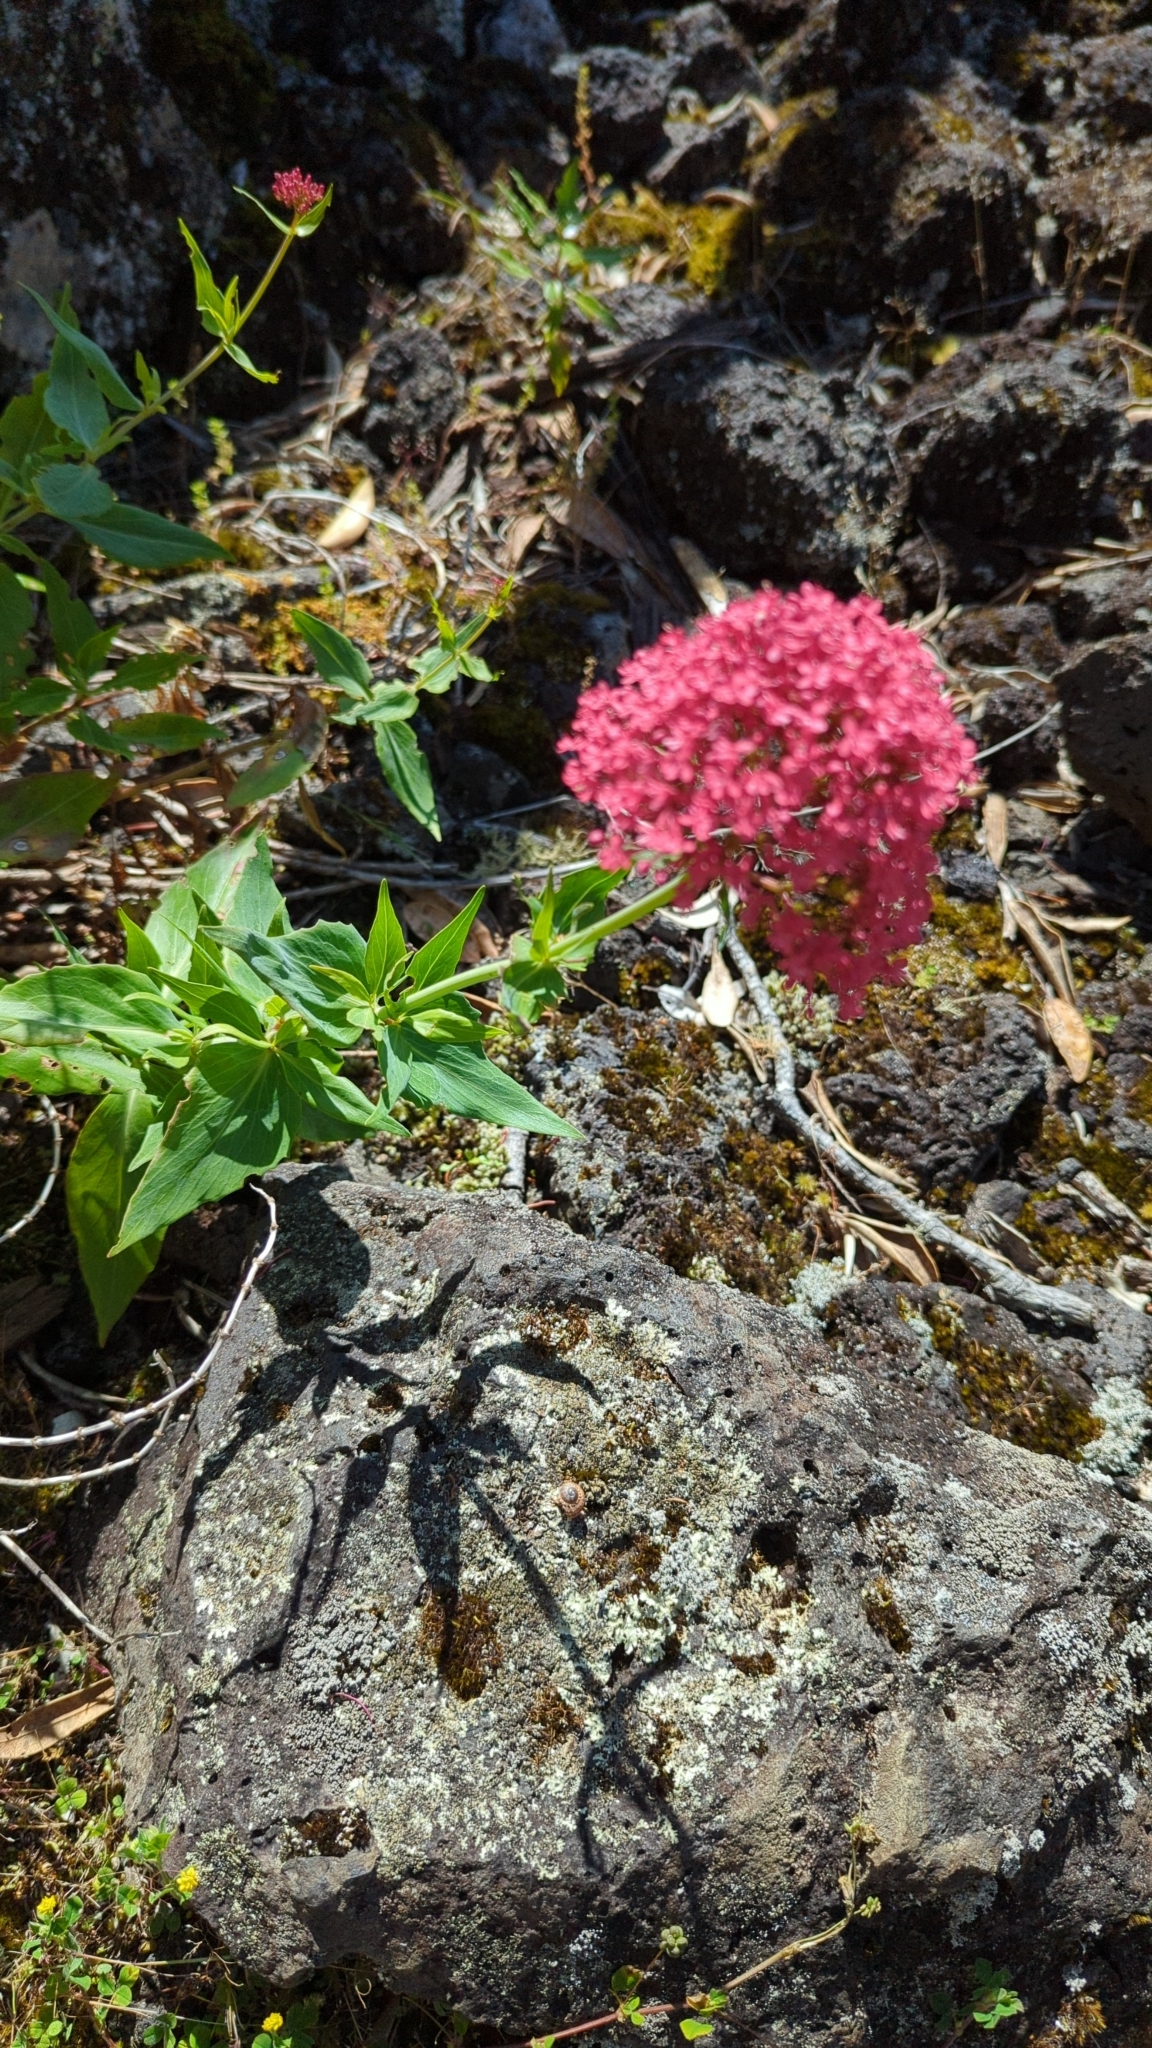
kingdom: Plantae
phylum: Tracheophyta
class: Magnoliopsida
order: Dipsacales
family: Caprifoliaceae
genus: Centranthus
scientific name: Centranthus ruber
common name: Red valerian
